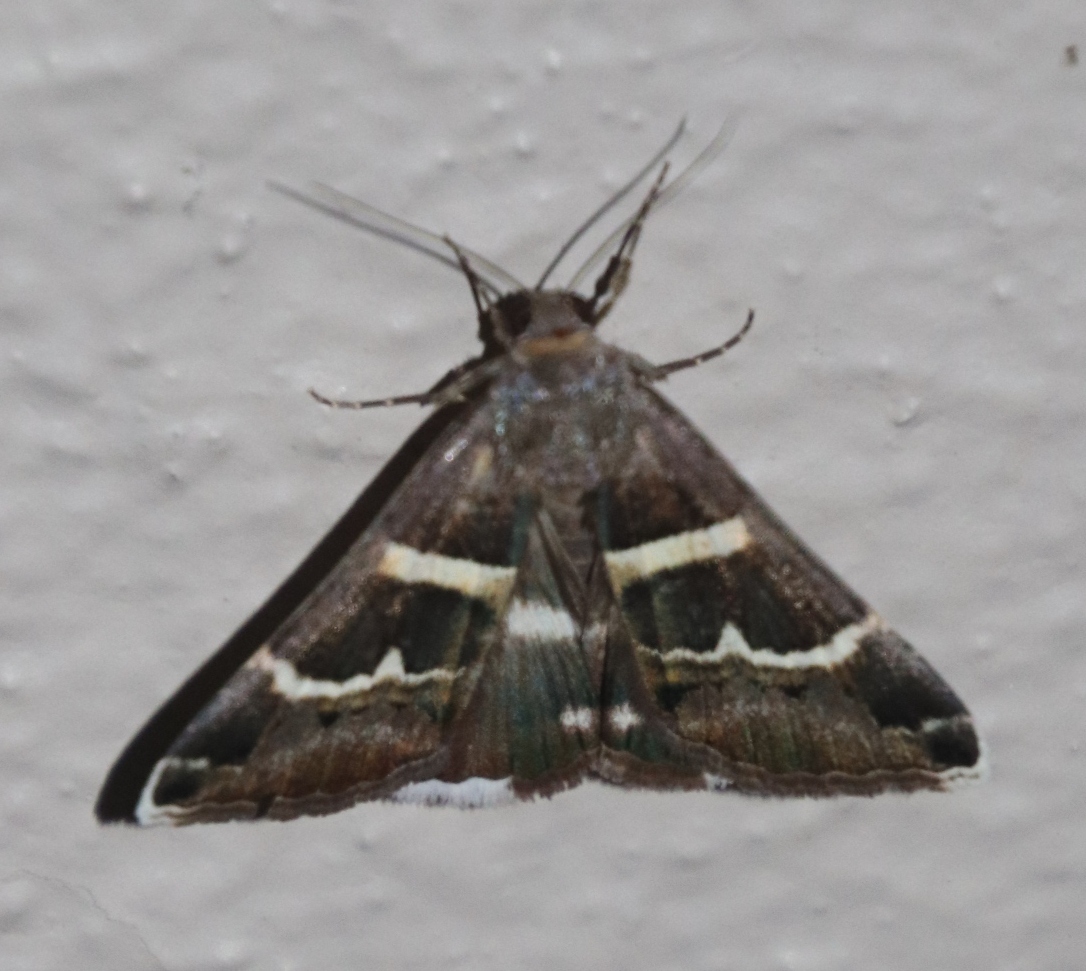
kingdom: Animalia
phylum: Arthropoda
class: Insecta
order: Lepidoptera
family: Erebidae
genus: Grammodes
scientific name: Grammodes stolida
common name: Geometrician
